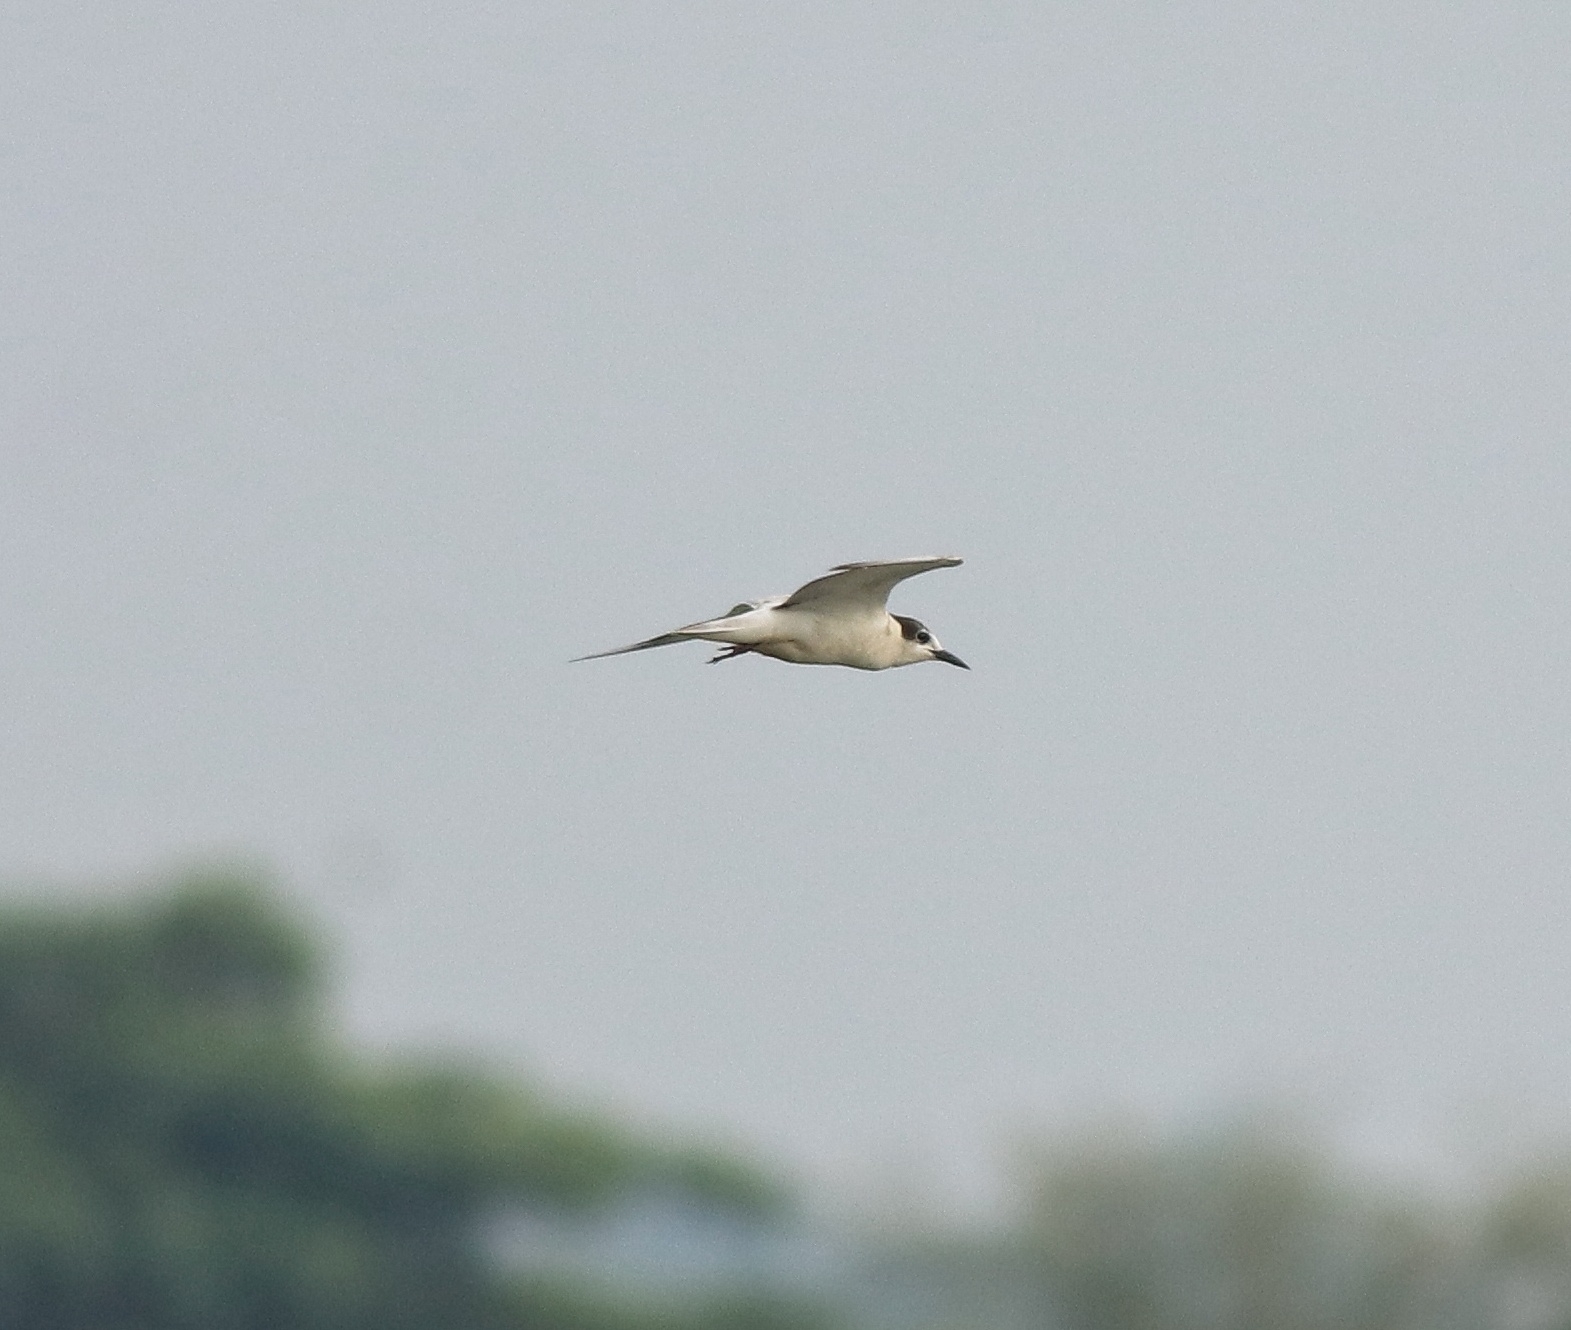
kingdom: Animalia
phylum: Chordata
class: Aves
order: Charadriiformes
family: Laridae
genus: Chlidonias
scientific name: Chlidonias hybrida
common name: Whiskered tern
